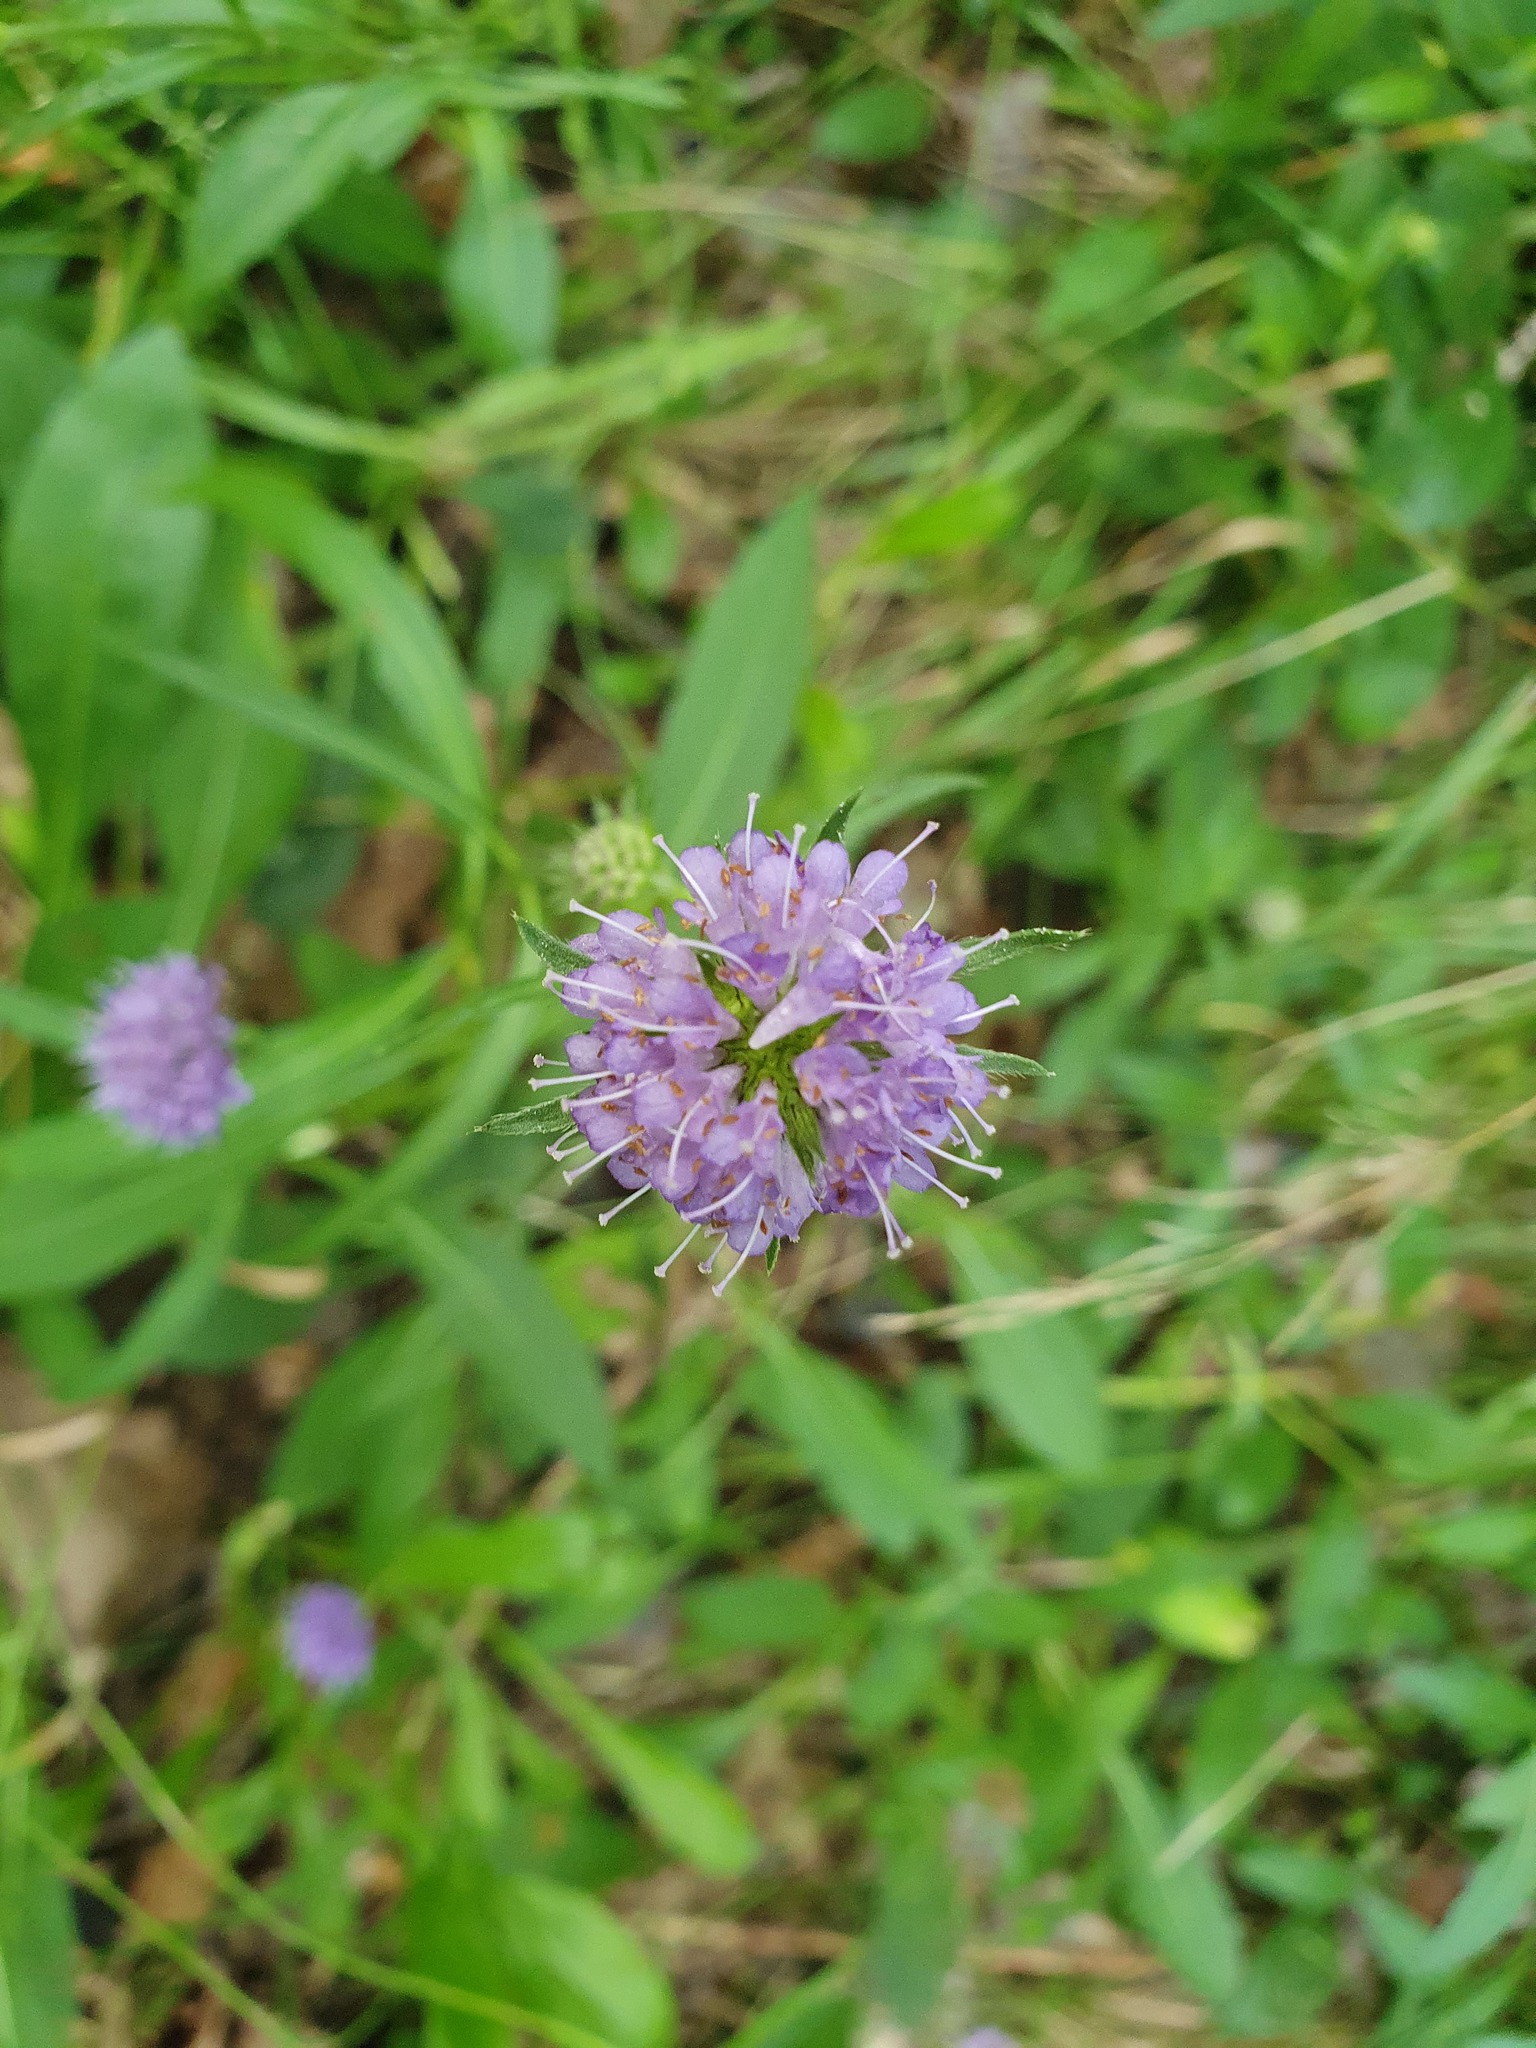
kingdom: Plantae
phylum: Tracheophyta
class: Magnoliopsida
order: Dipsacales
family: Caprifoliaceae
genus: Succisa
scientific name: Succisa pratensis
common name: Devil's-bit
